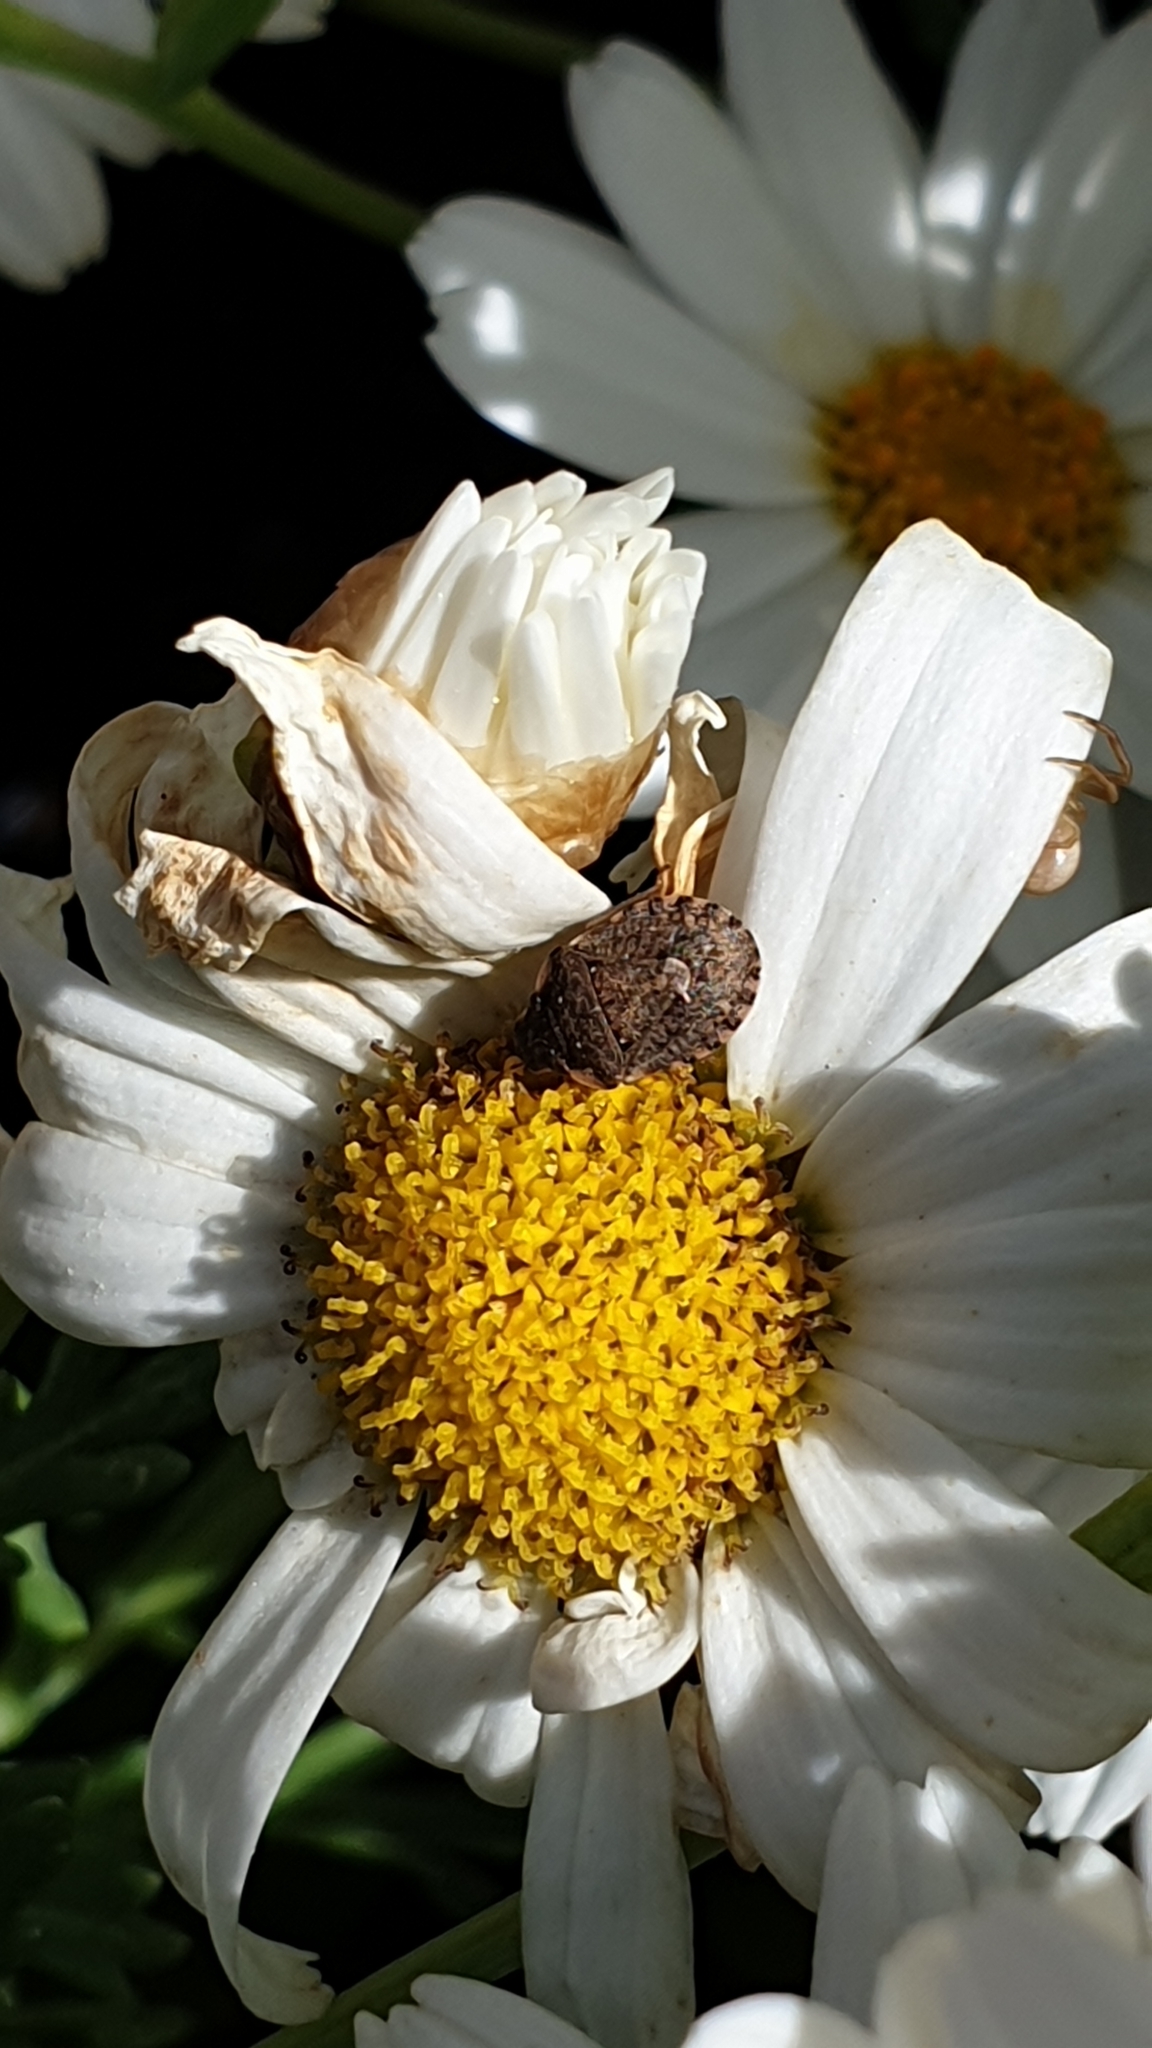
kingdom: Animalia
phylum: Arthropoda
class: Insecta
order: Hemiptera
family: Pentatomidae
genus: Sciocoris
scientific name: Sciocoris maculatus
